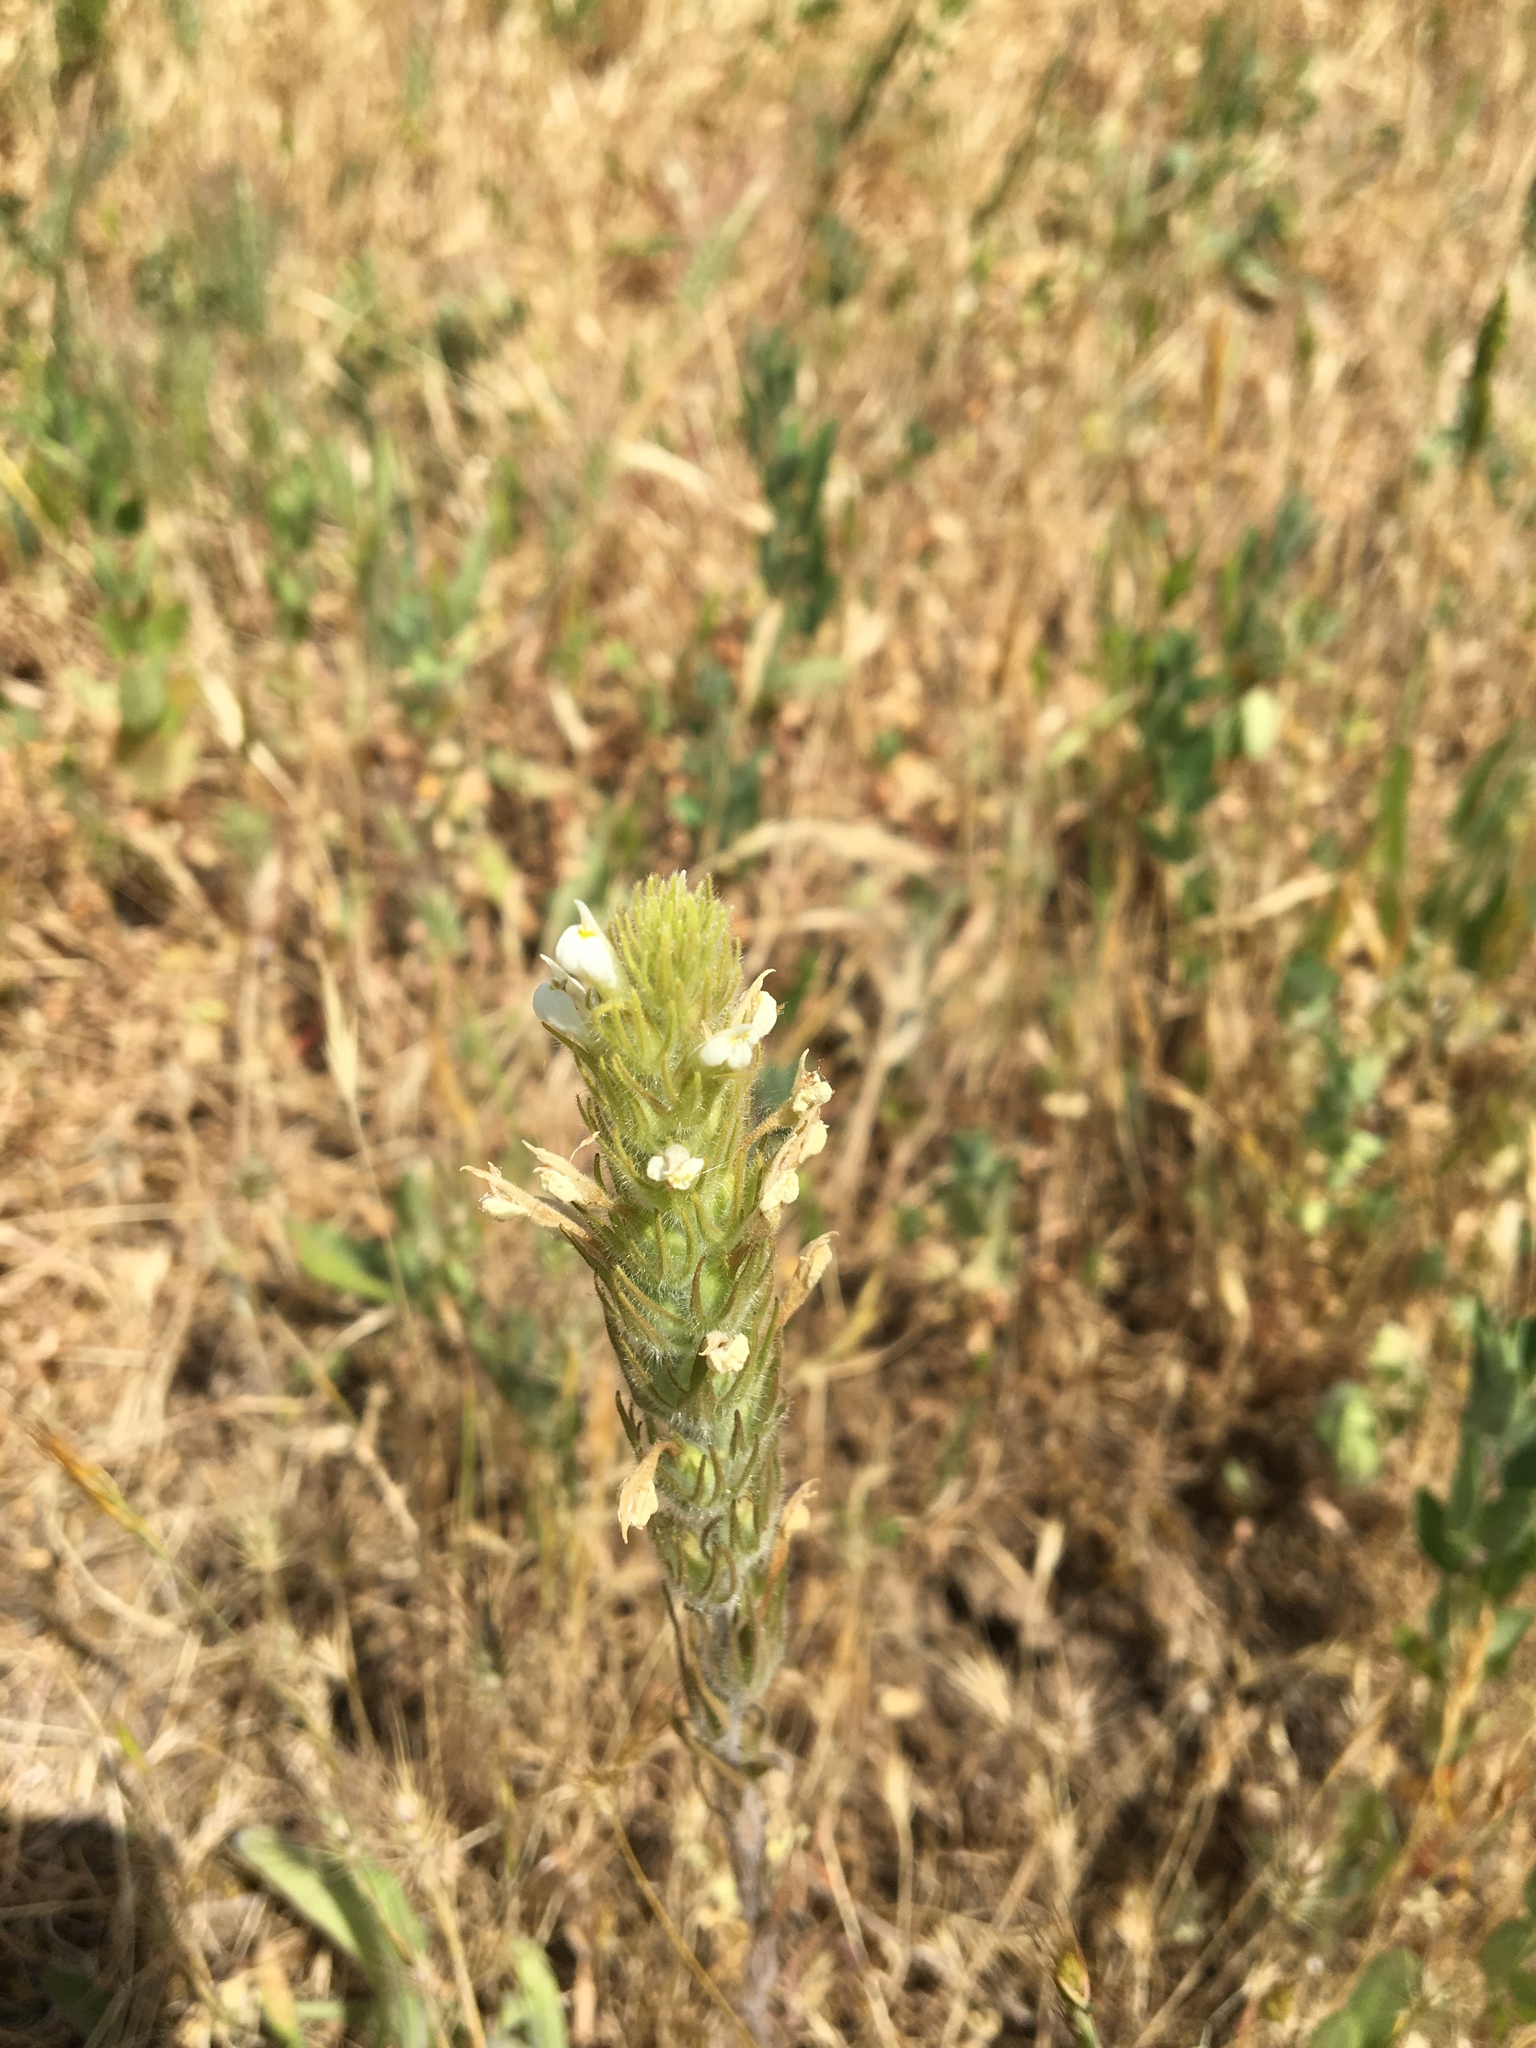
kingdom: Plantae
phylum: Tracheophyta
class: Magnoliopsida
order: Lamiales
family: Orobanchaceae
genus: Castilleja
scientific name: Castilleja tenuis
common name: Hairy indian paintbrush
